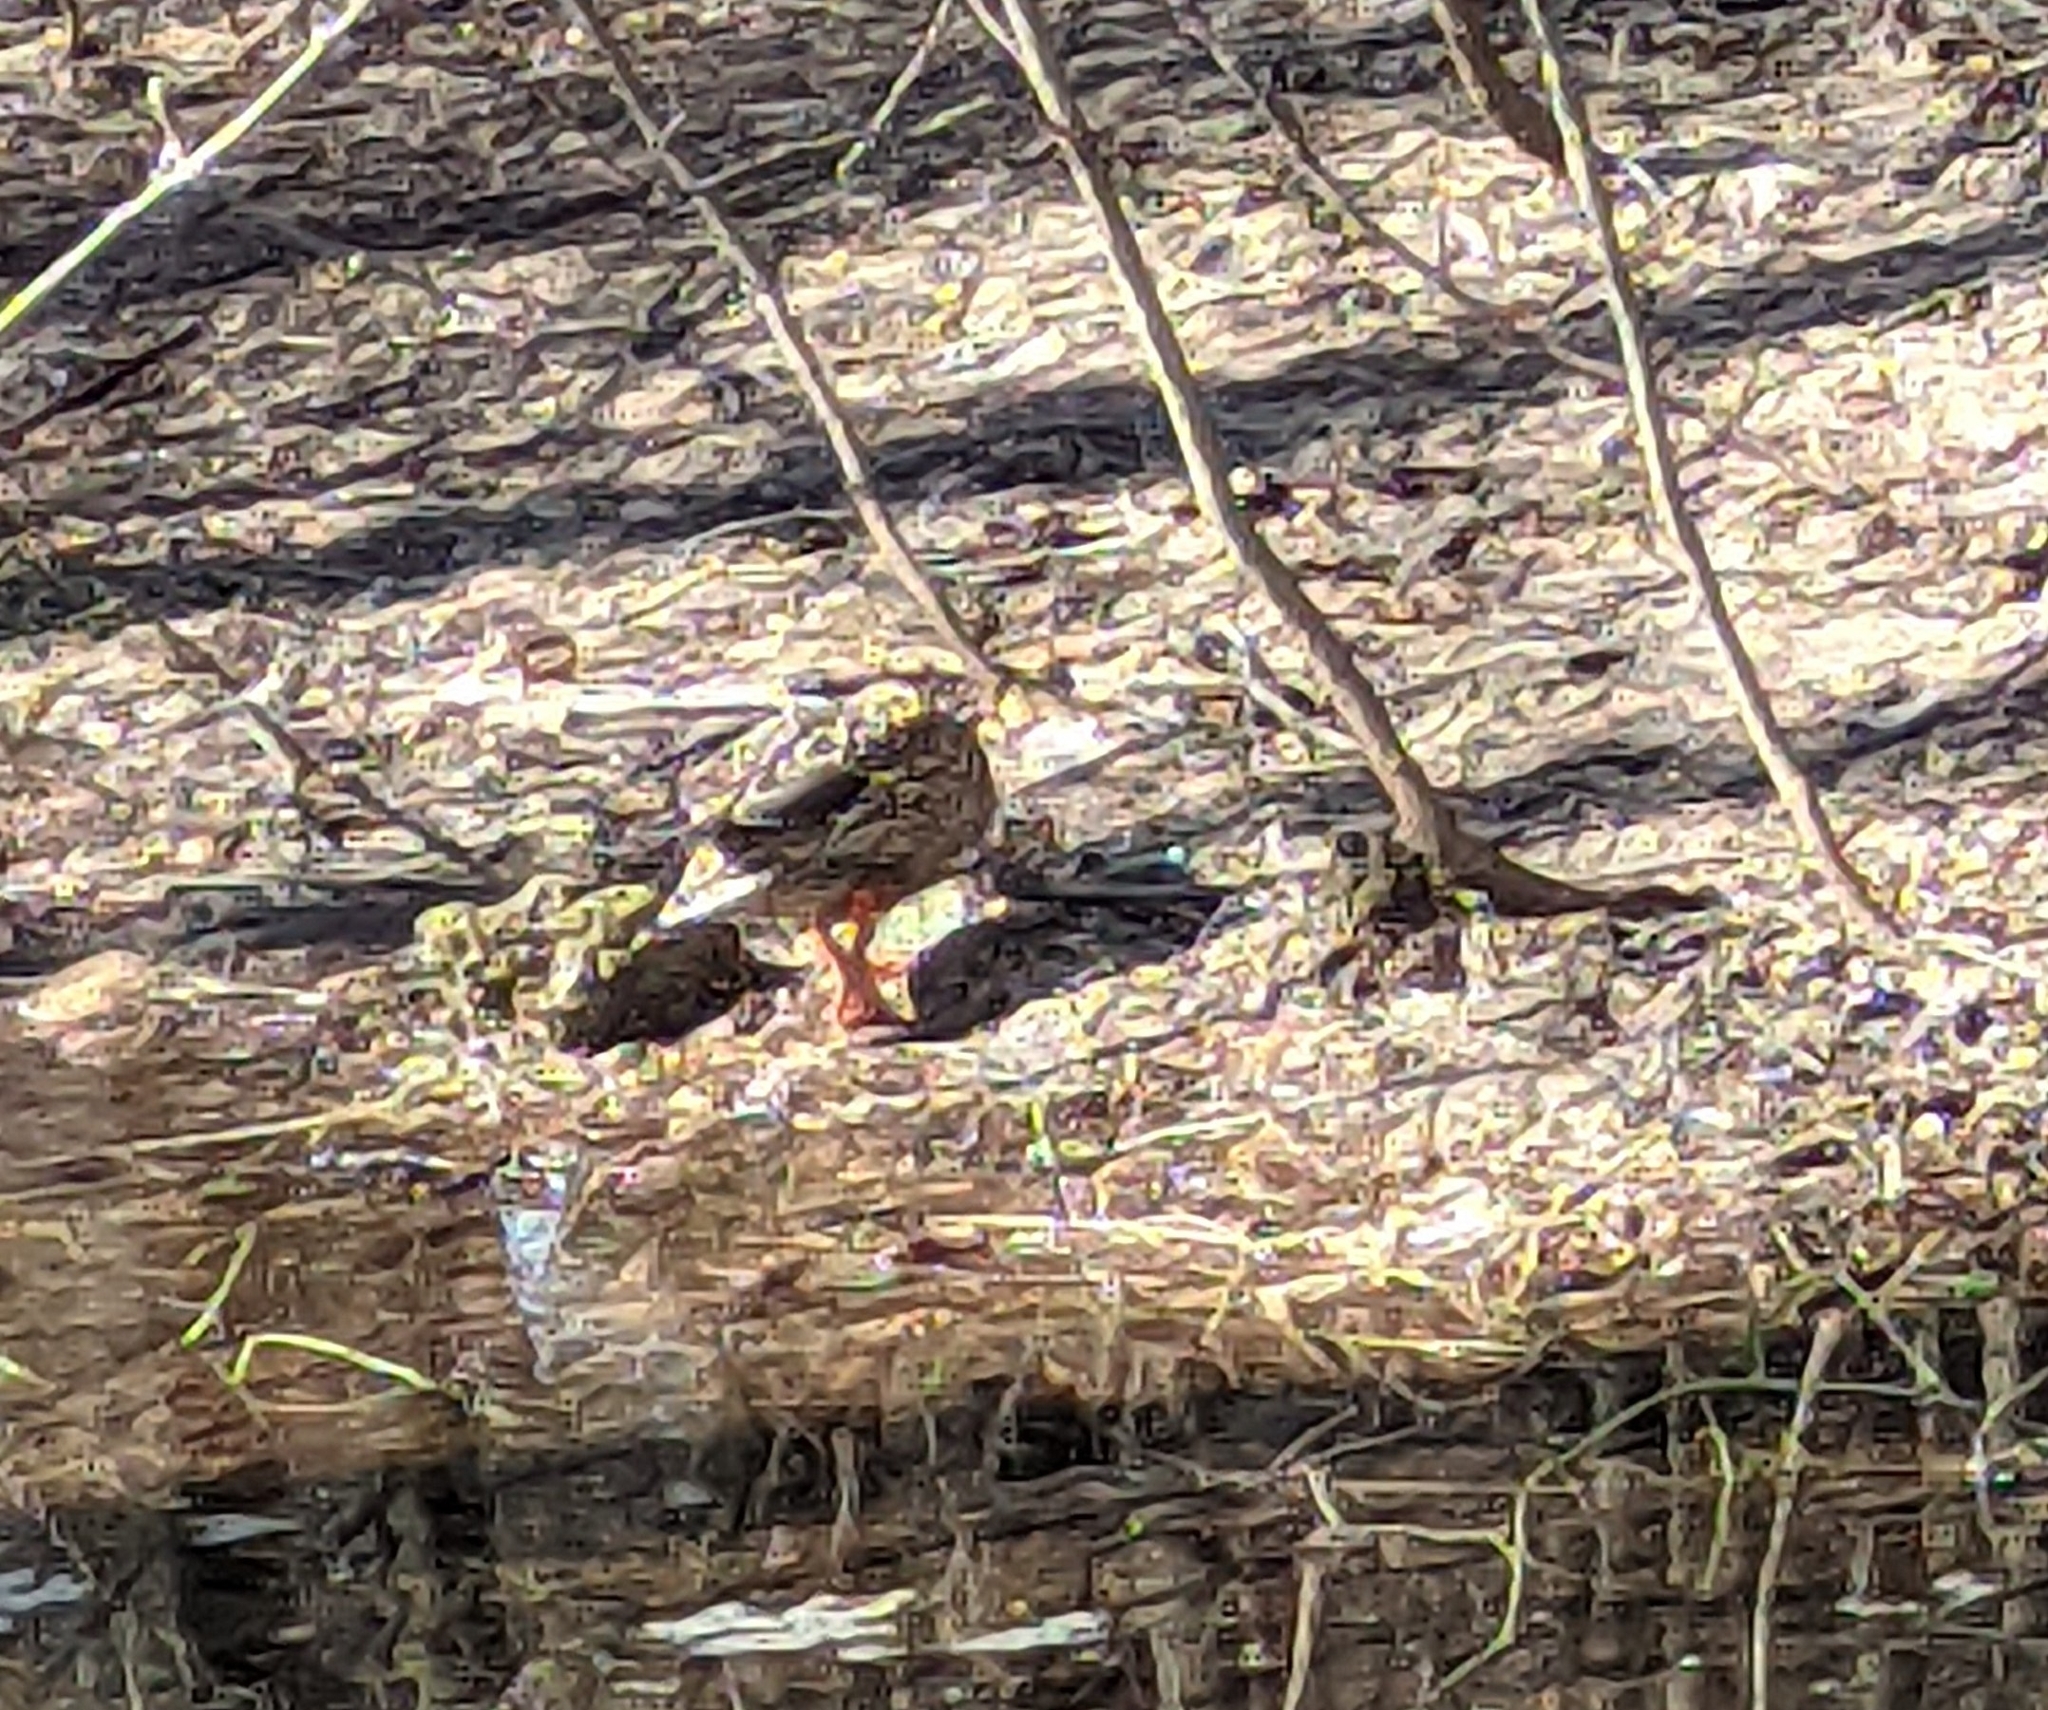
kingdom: Animalia
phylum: Chordata
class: Aves
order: Anseriformes
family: Anatidae
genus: Anas
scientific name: Anas platyrhynchos
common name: Mallard
